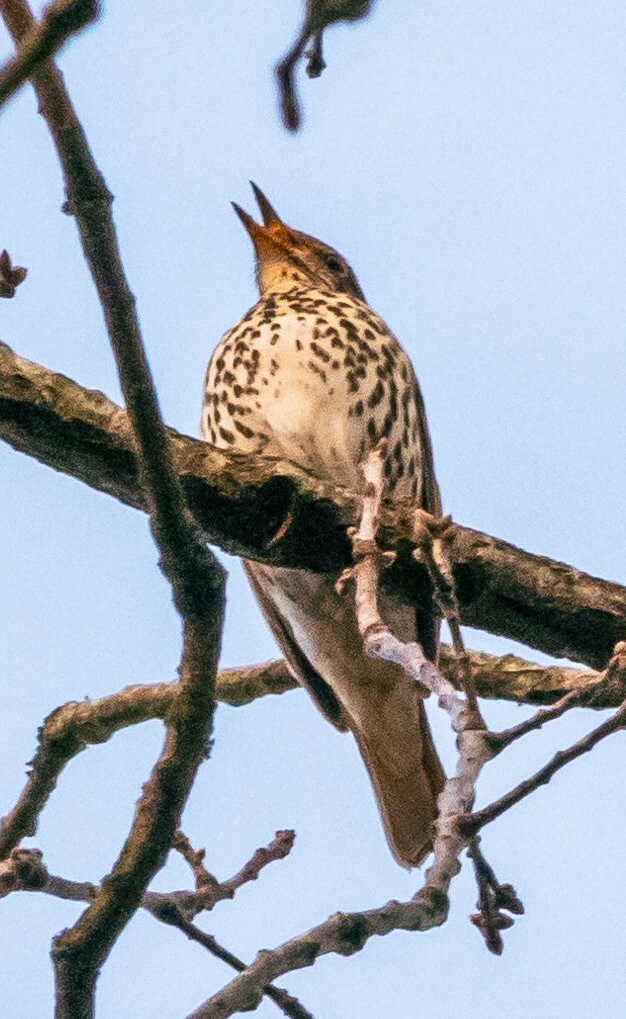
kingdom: Animalia
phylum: Chordata
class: Aves
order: Passeriformes
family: Turdidae
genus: Turdus
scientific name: Turdus philomelos
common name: Song thrush
